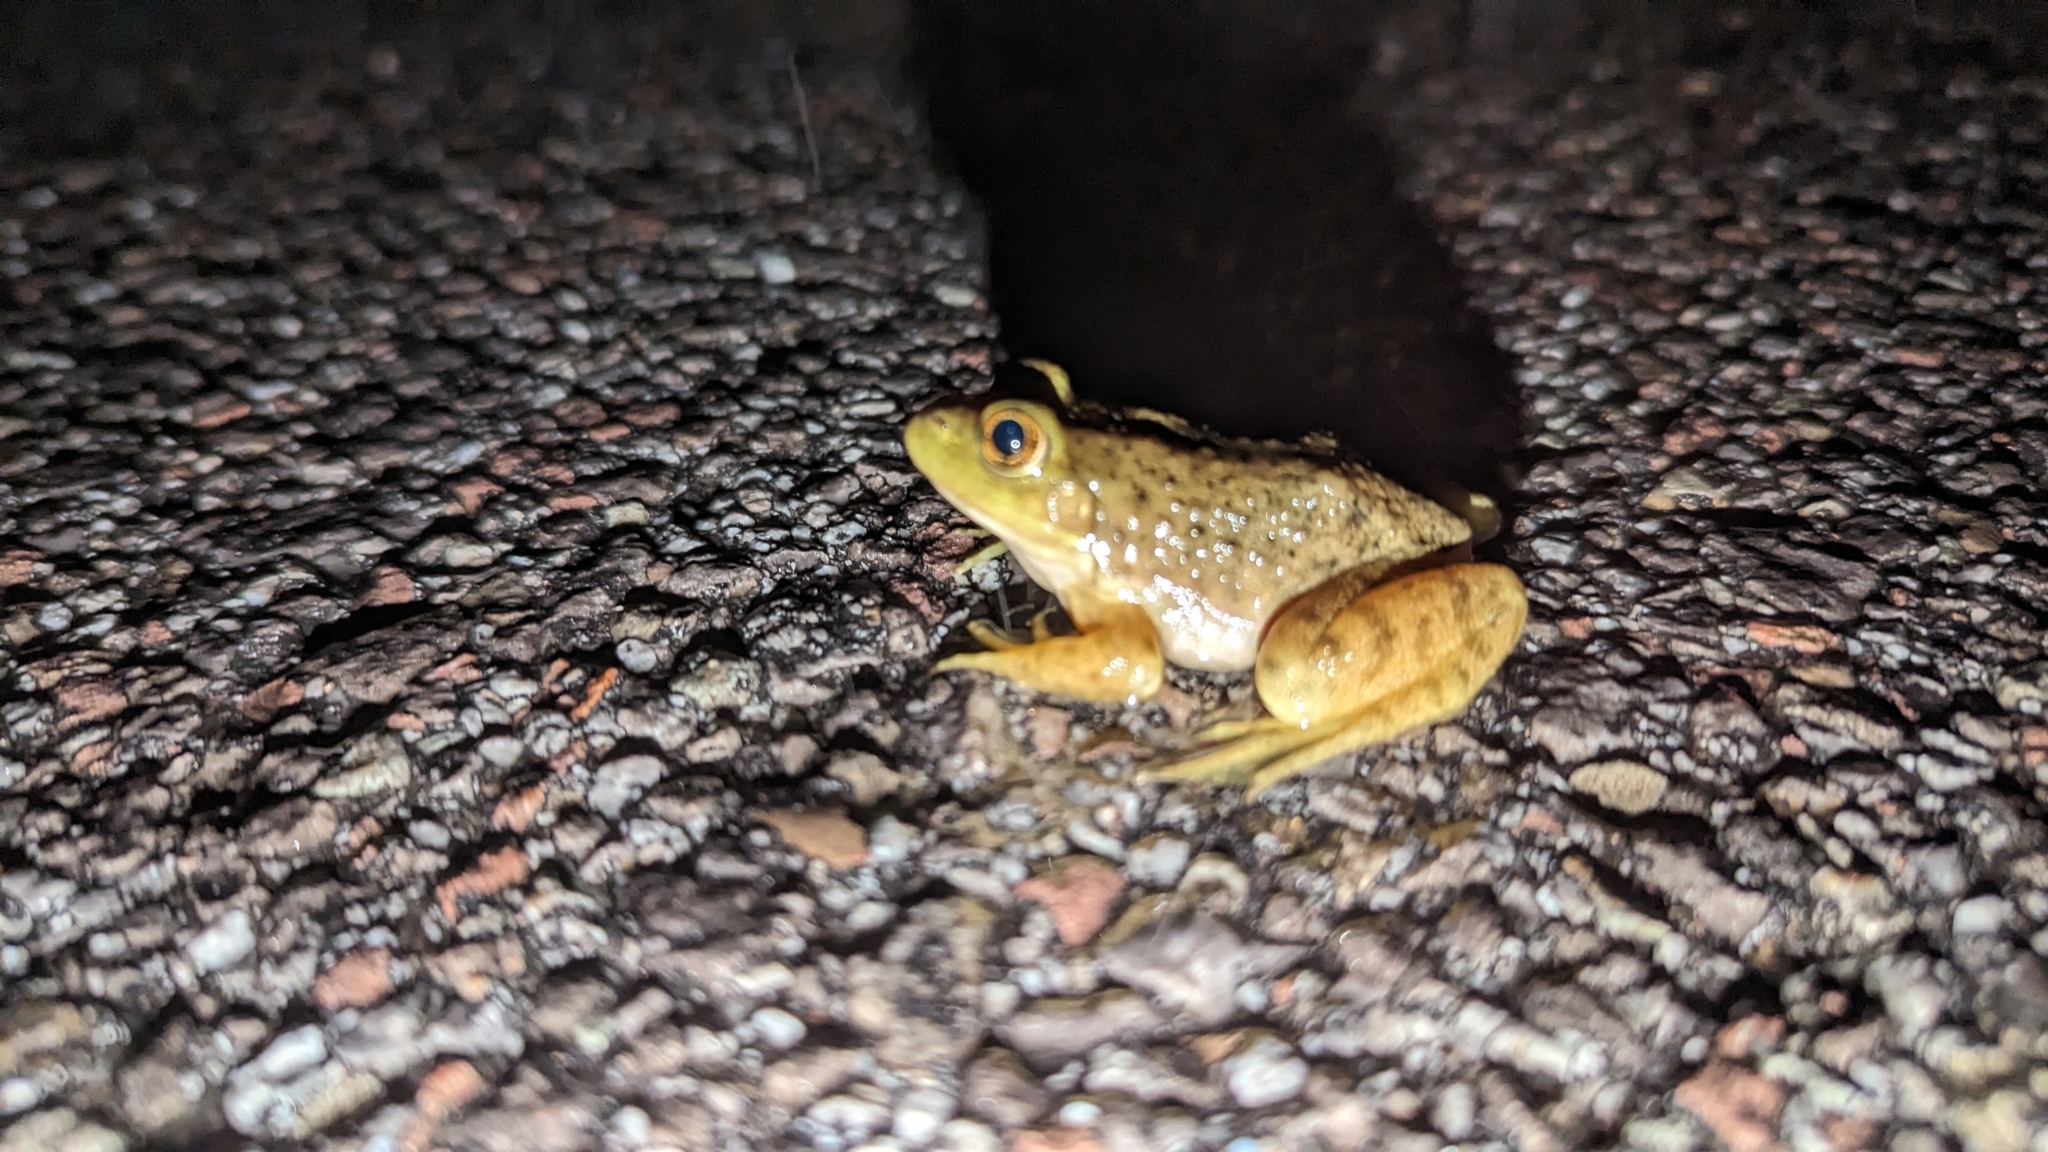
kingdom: Animalia
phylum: Chordata
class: Amphibia
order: Anura
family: Ranidae
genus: Lithobates
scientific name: Lithobates catesbeianus
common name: American bullfrog
